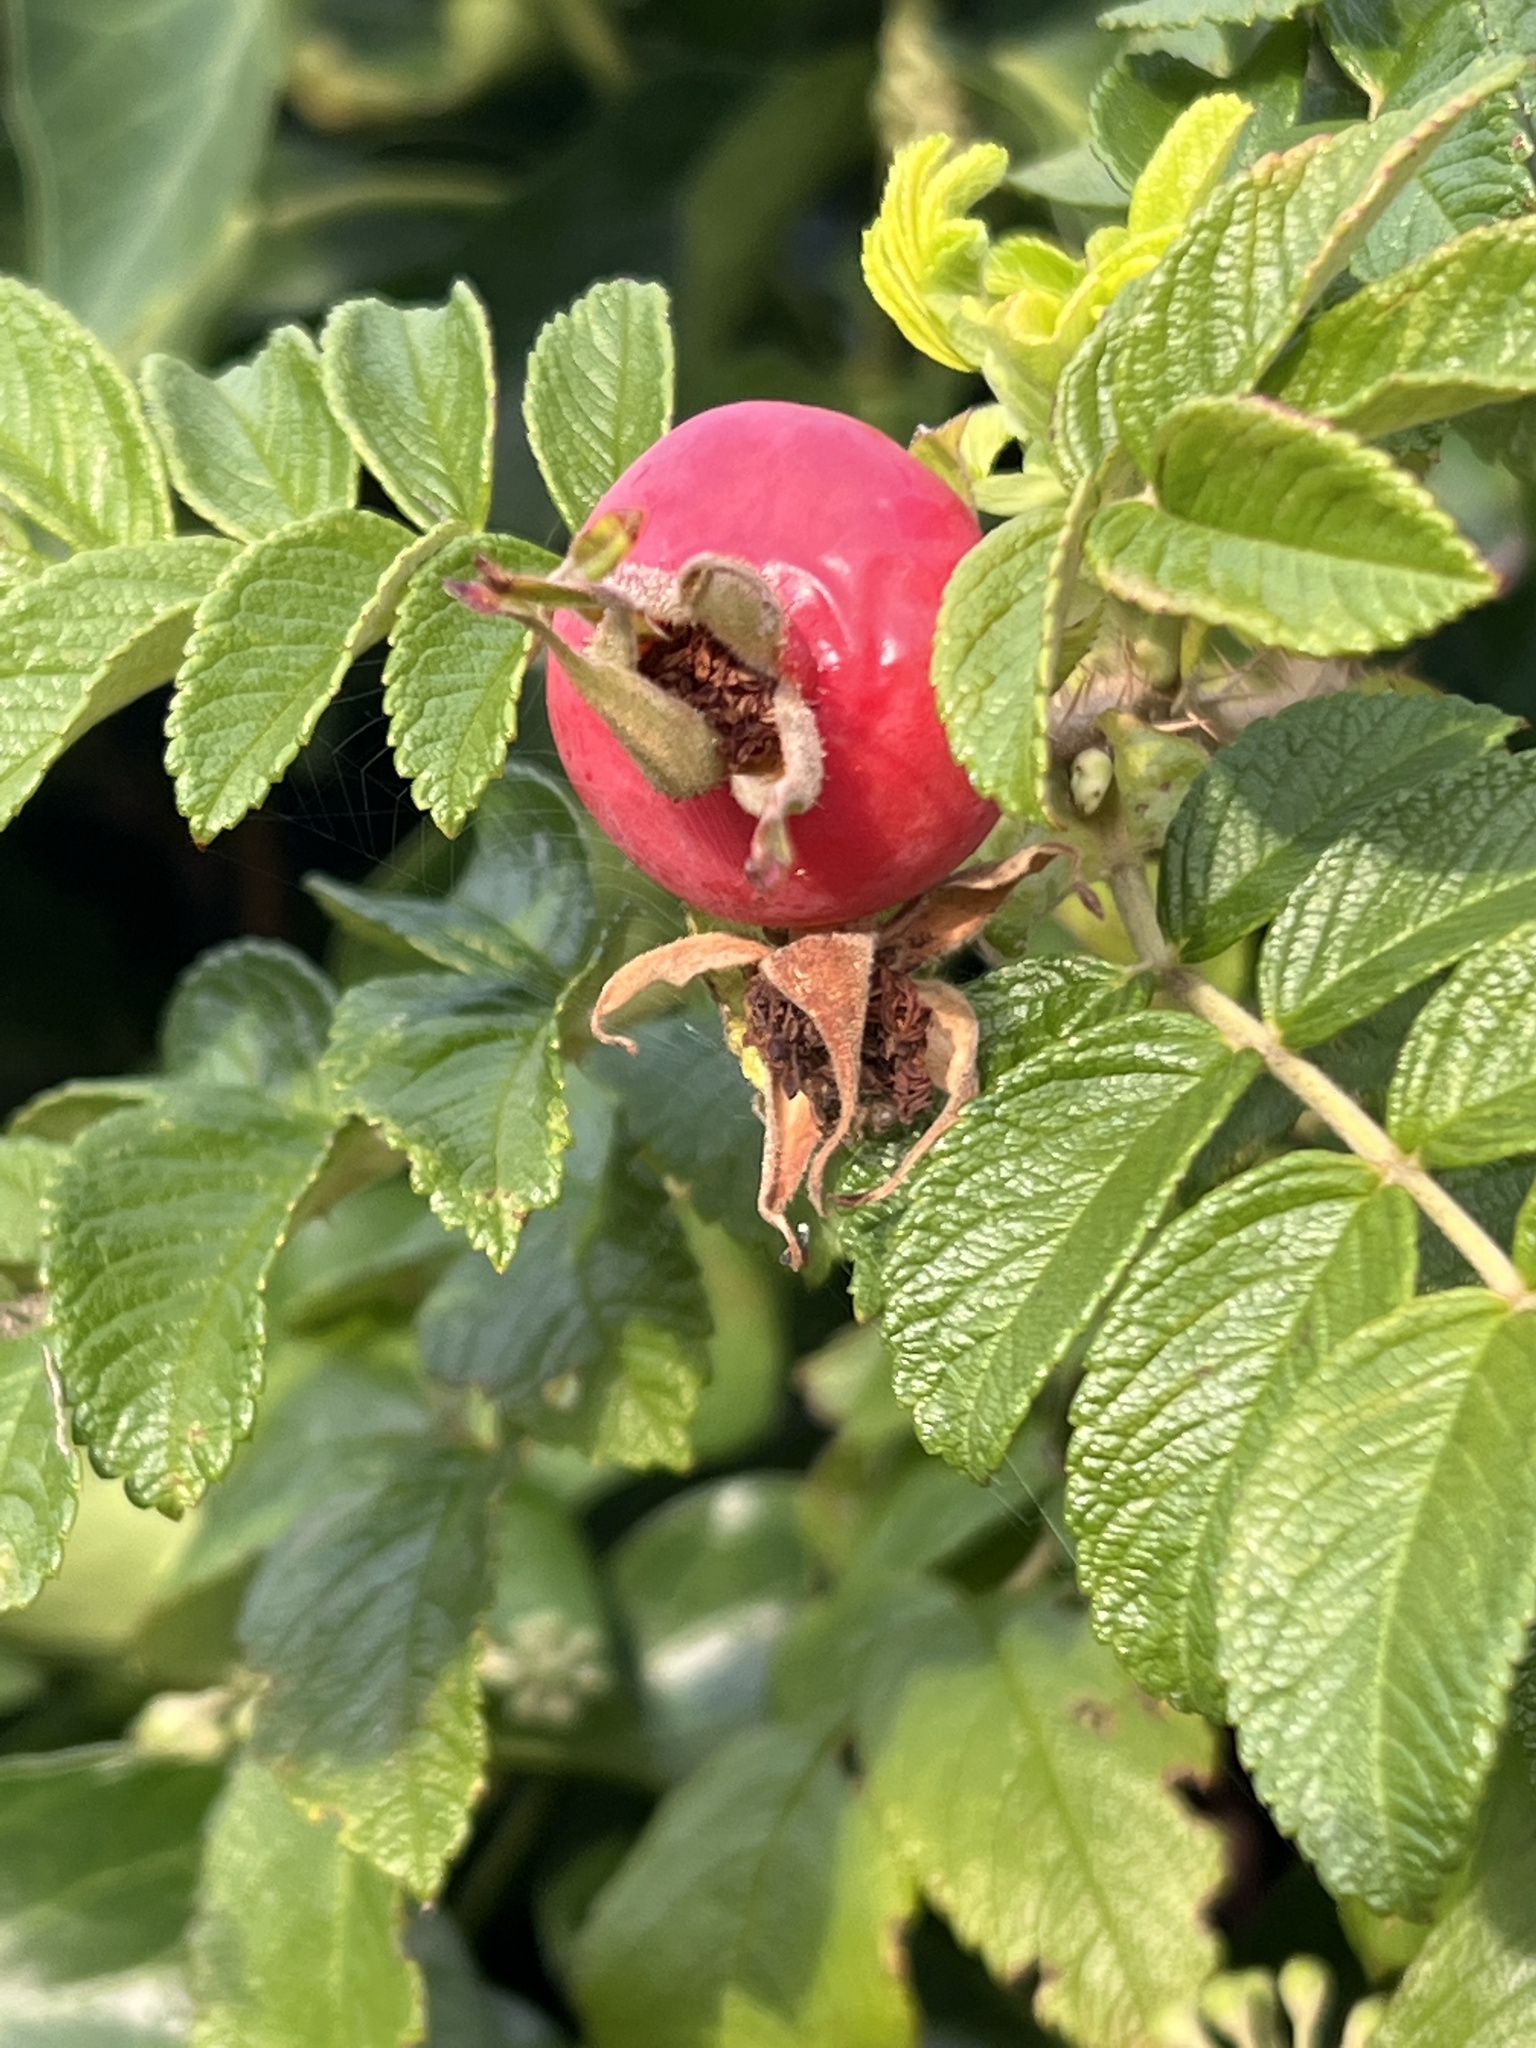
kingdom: Plantae
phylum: Tracheophyta
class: Magnoliopsida
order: Rosales
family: Rosaceae
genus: Rosa
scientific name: Rosa rugosa
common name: Japanese rose
